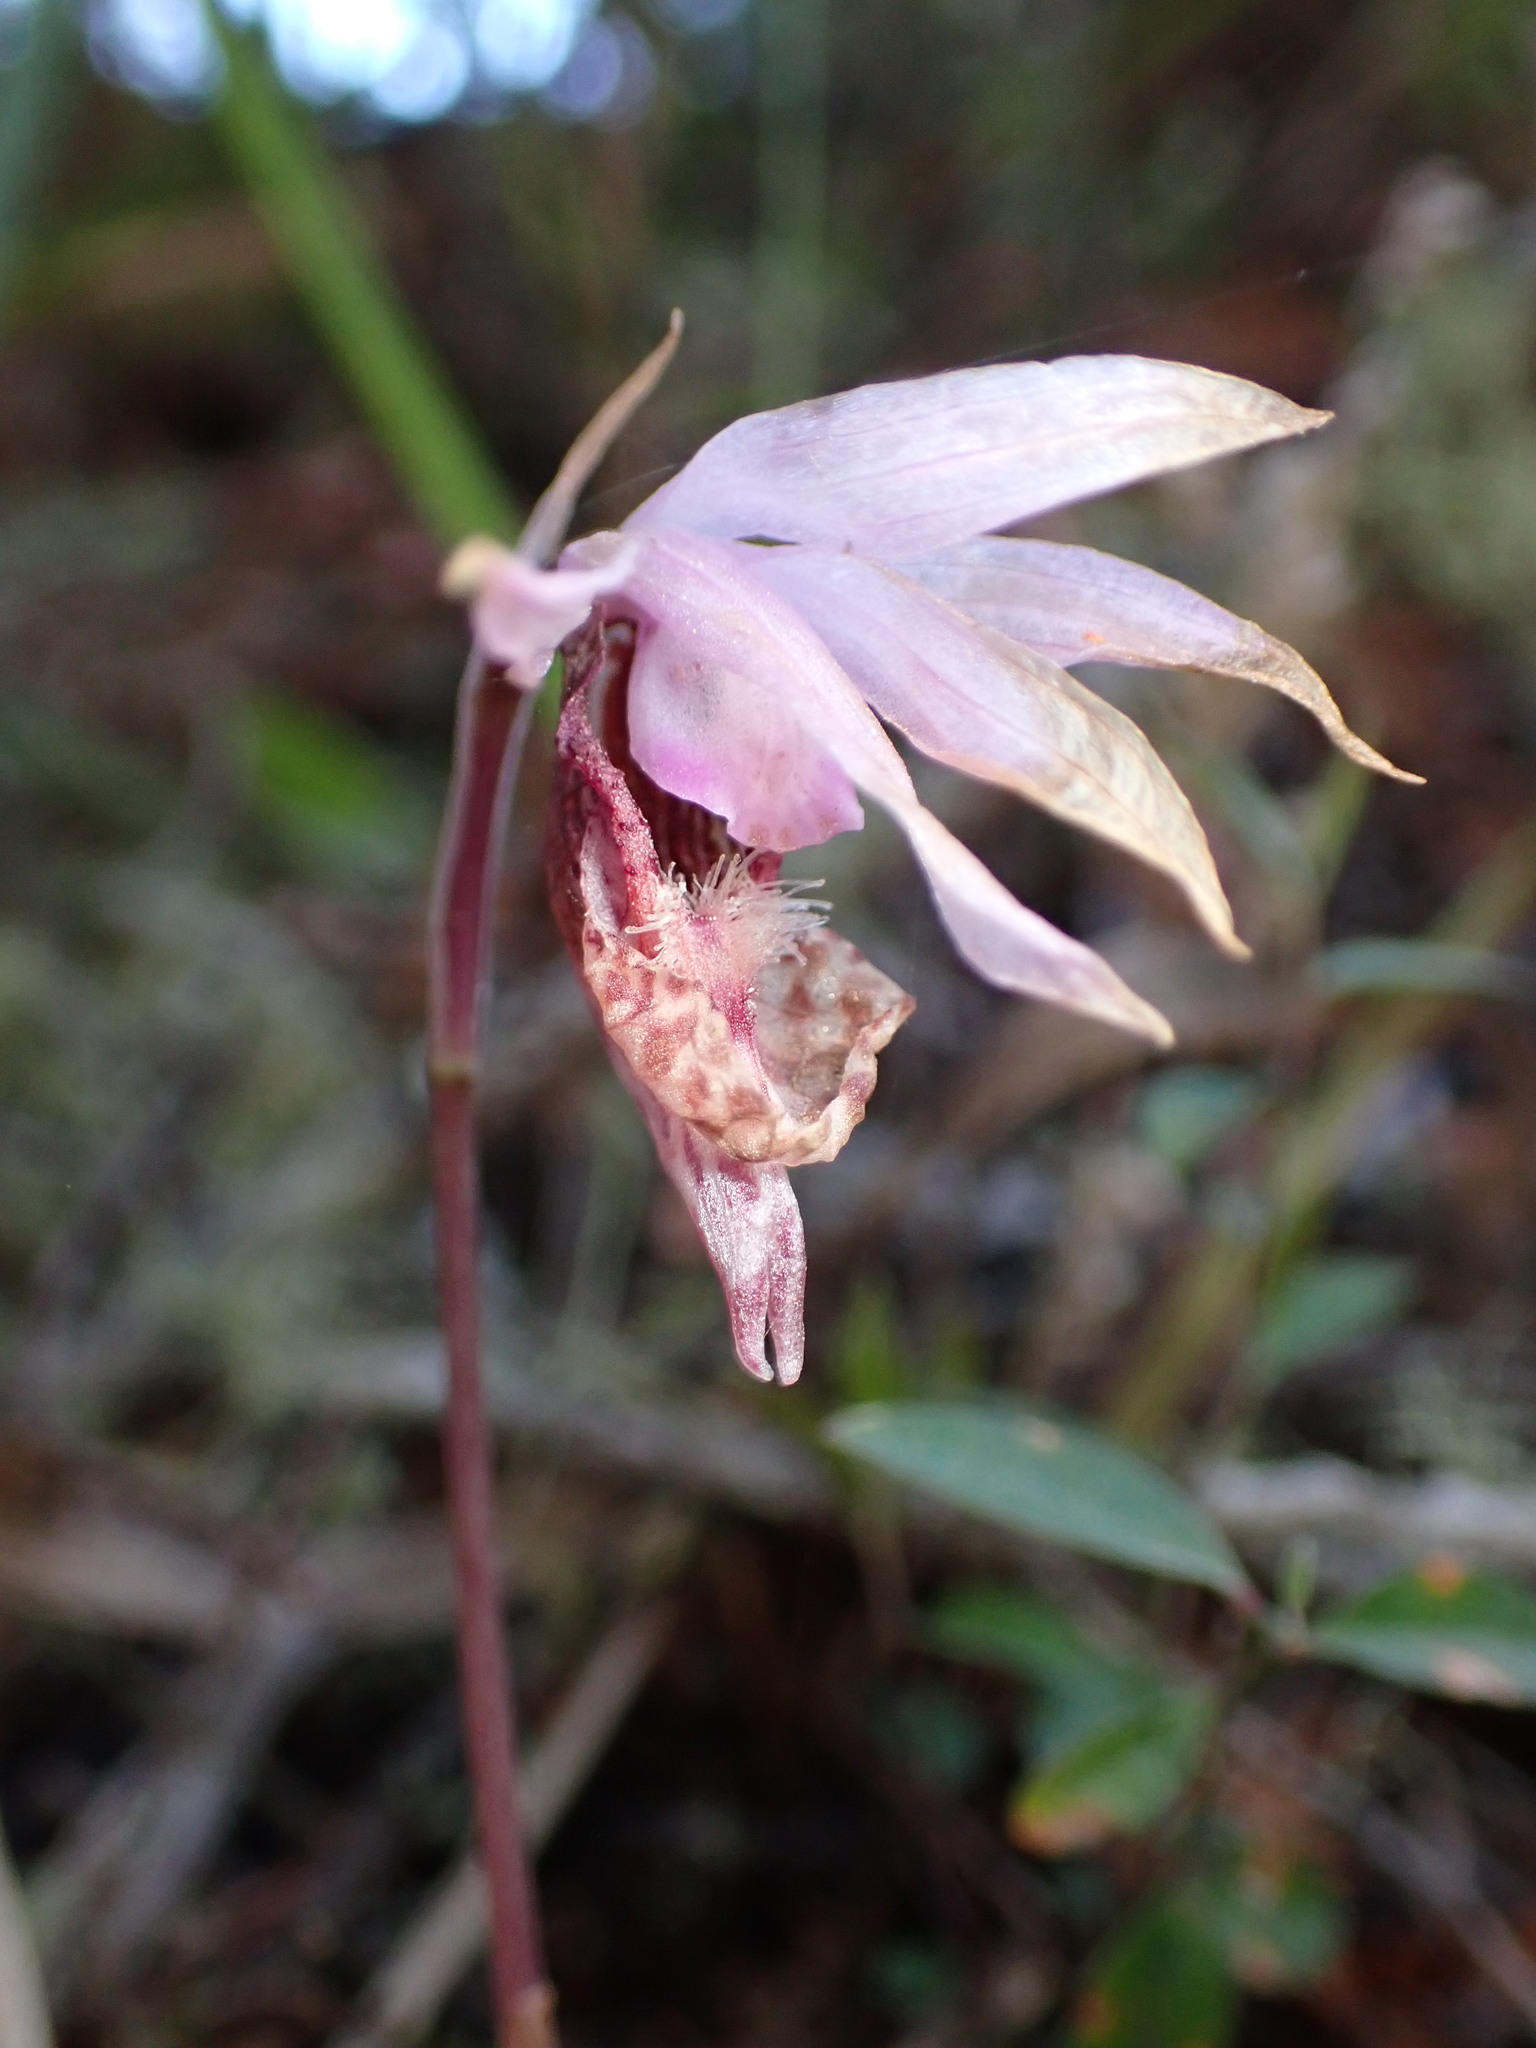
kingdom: Plantae
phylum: Tracheophyta
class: Liliopsida
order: Asparagales
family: Orchidaceae
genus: Calypso
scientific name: Calypso bulbosa
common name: Calypso
